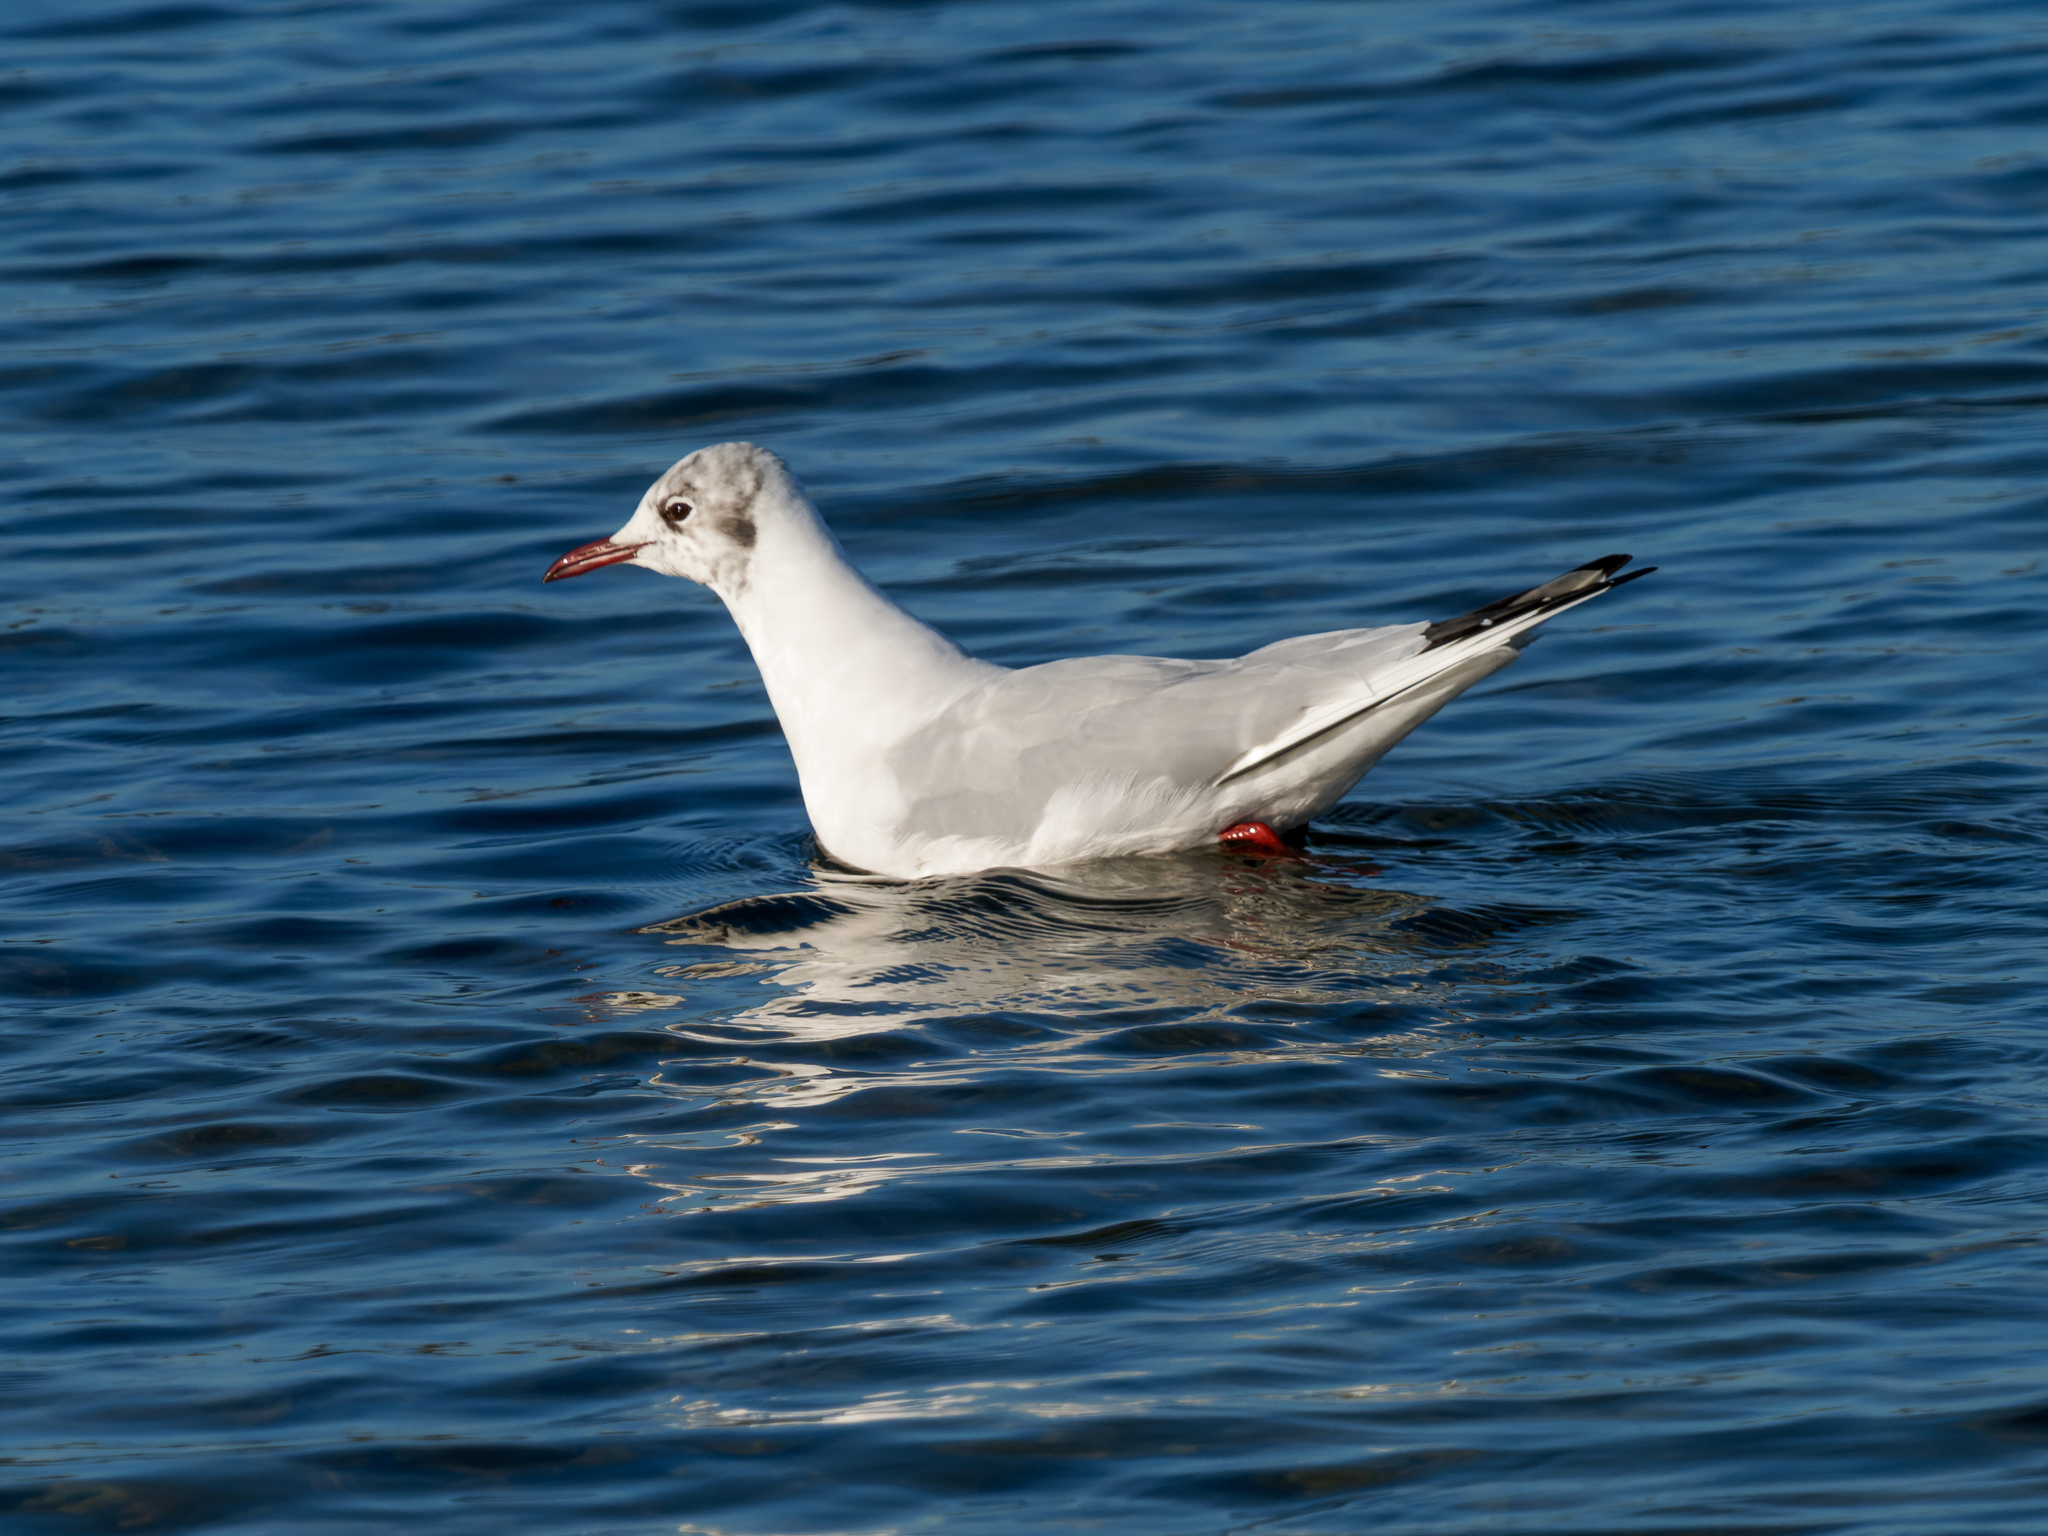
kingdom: Animalia
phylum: Chordata
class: Aves
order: Charadriiformes
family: Laridae
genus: Chroicocephalus
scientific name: Chroicocephalus ridibundus
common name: Black-headed gull
